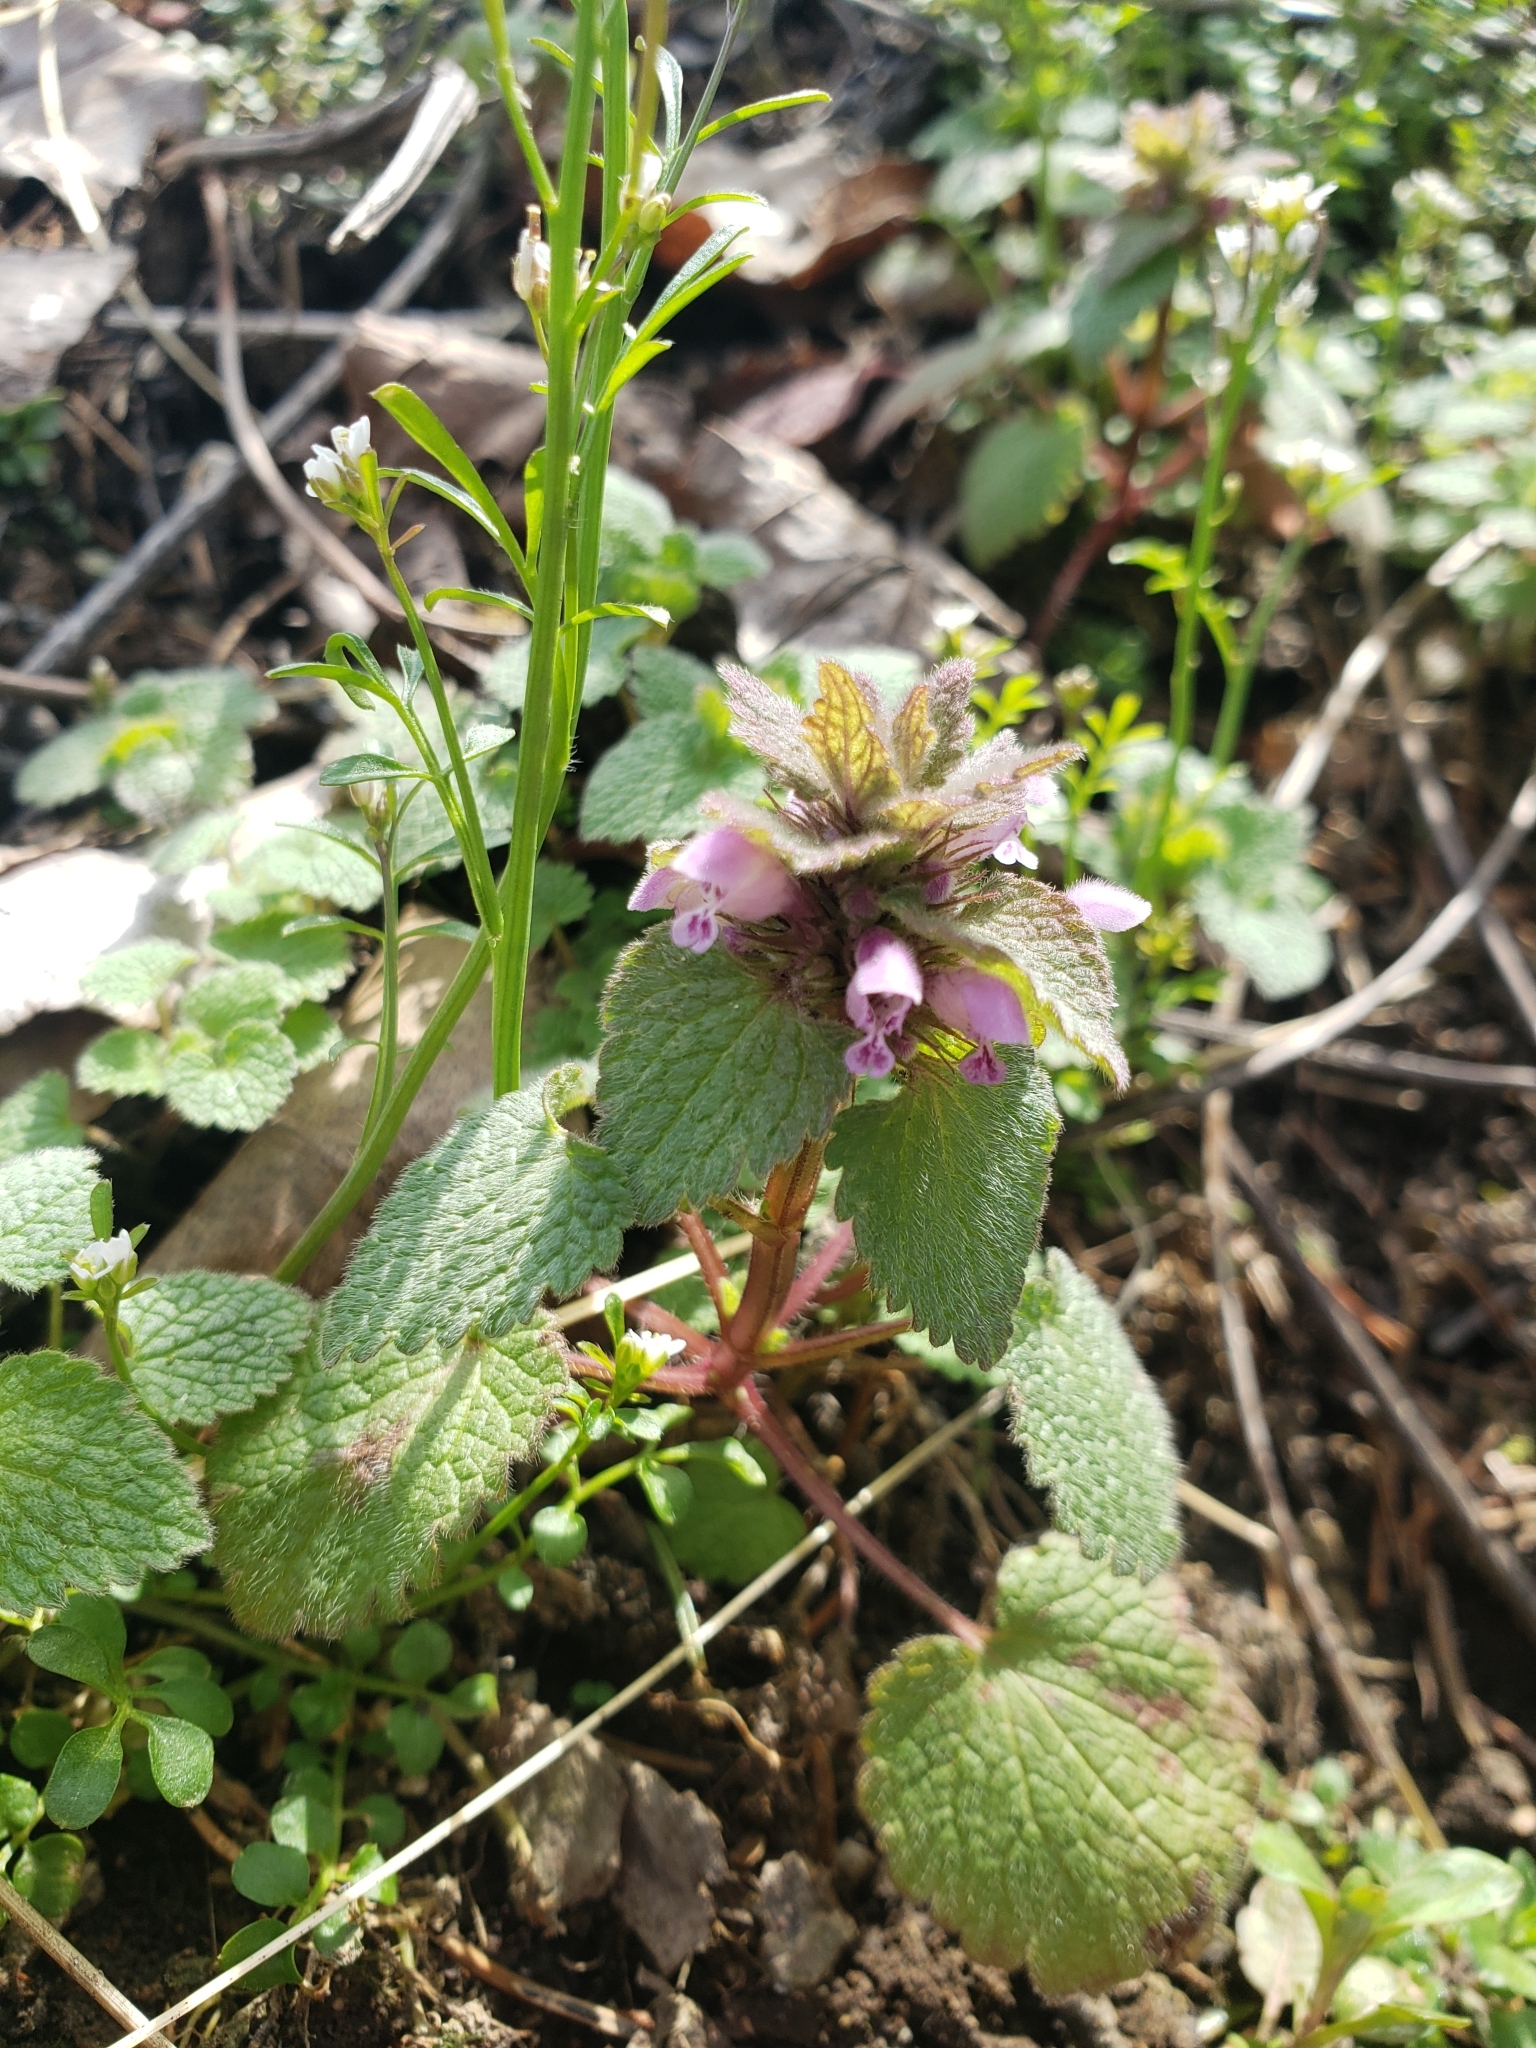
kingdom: Plantae
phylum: Tracheophyta
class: Magnoliopsida
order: Lamiales
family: Lamiaceae
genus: Lamium
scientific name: Lamium purpureum
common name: Red dead-nettle
